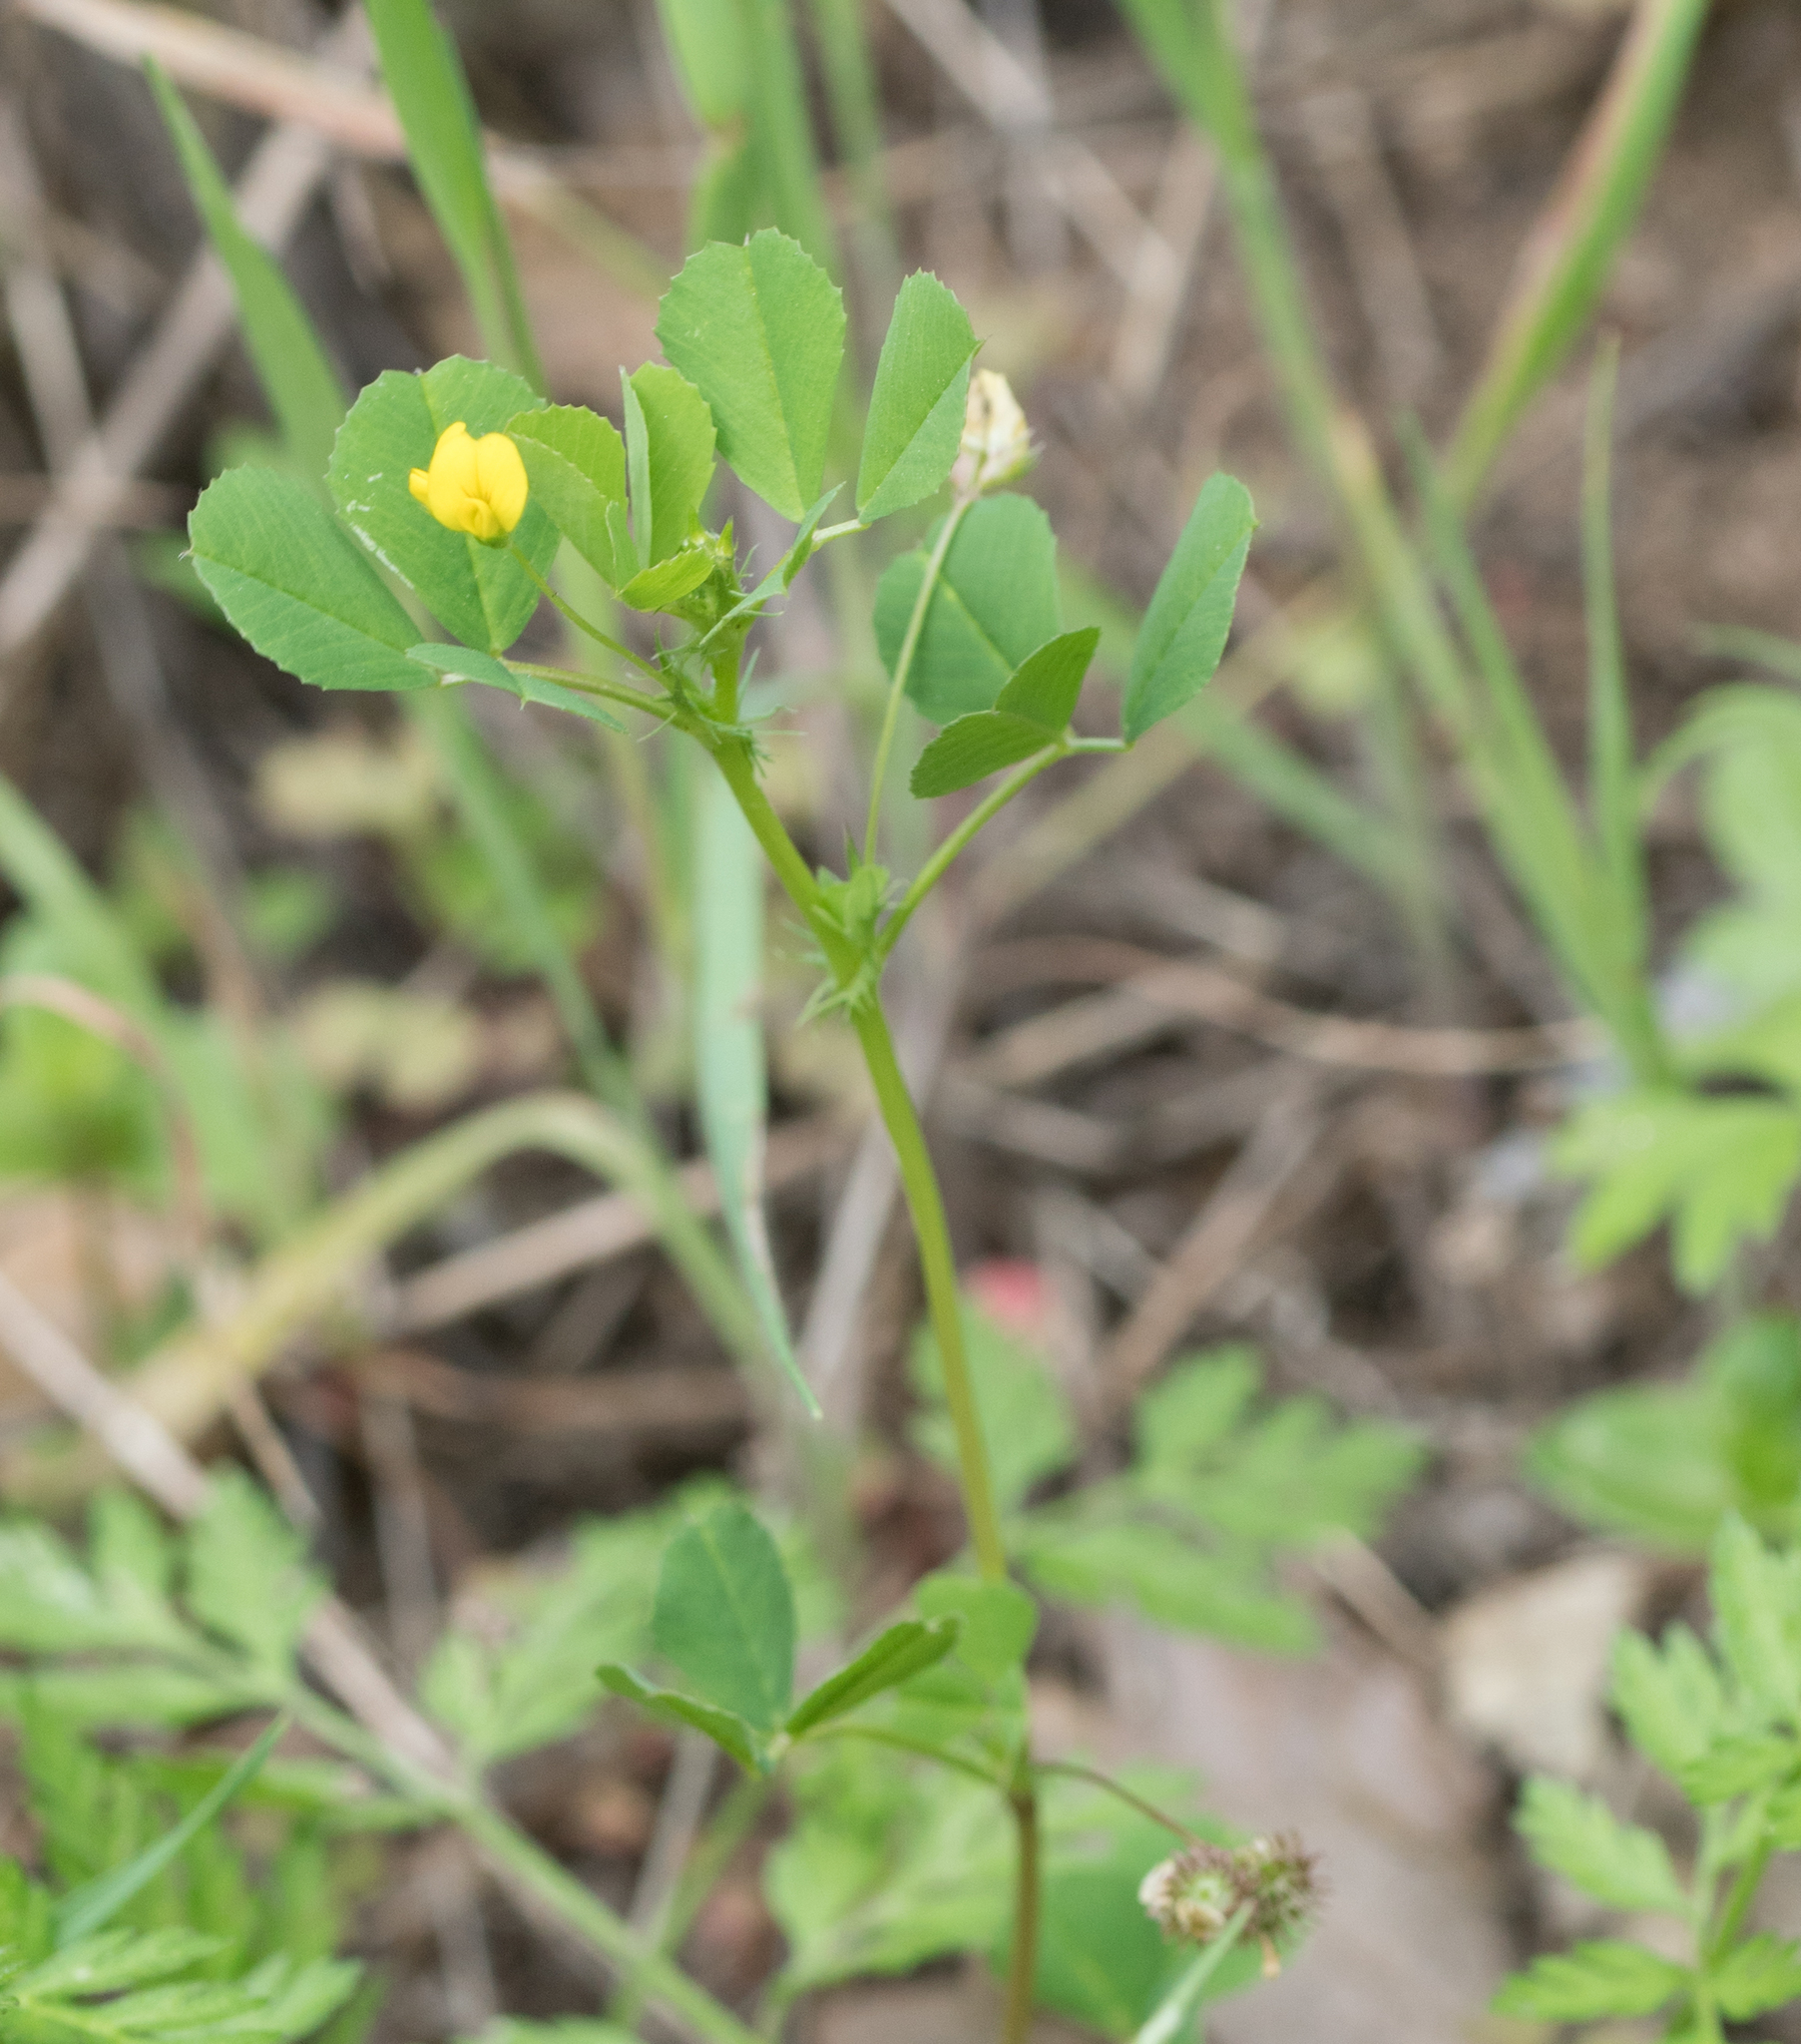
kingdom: Plantae
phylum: Tracheophyta
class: Magnoliopsida
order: Fabales
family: Fabaceae
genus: Medicago
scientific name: Medicago polymorpha
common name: Burclover
